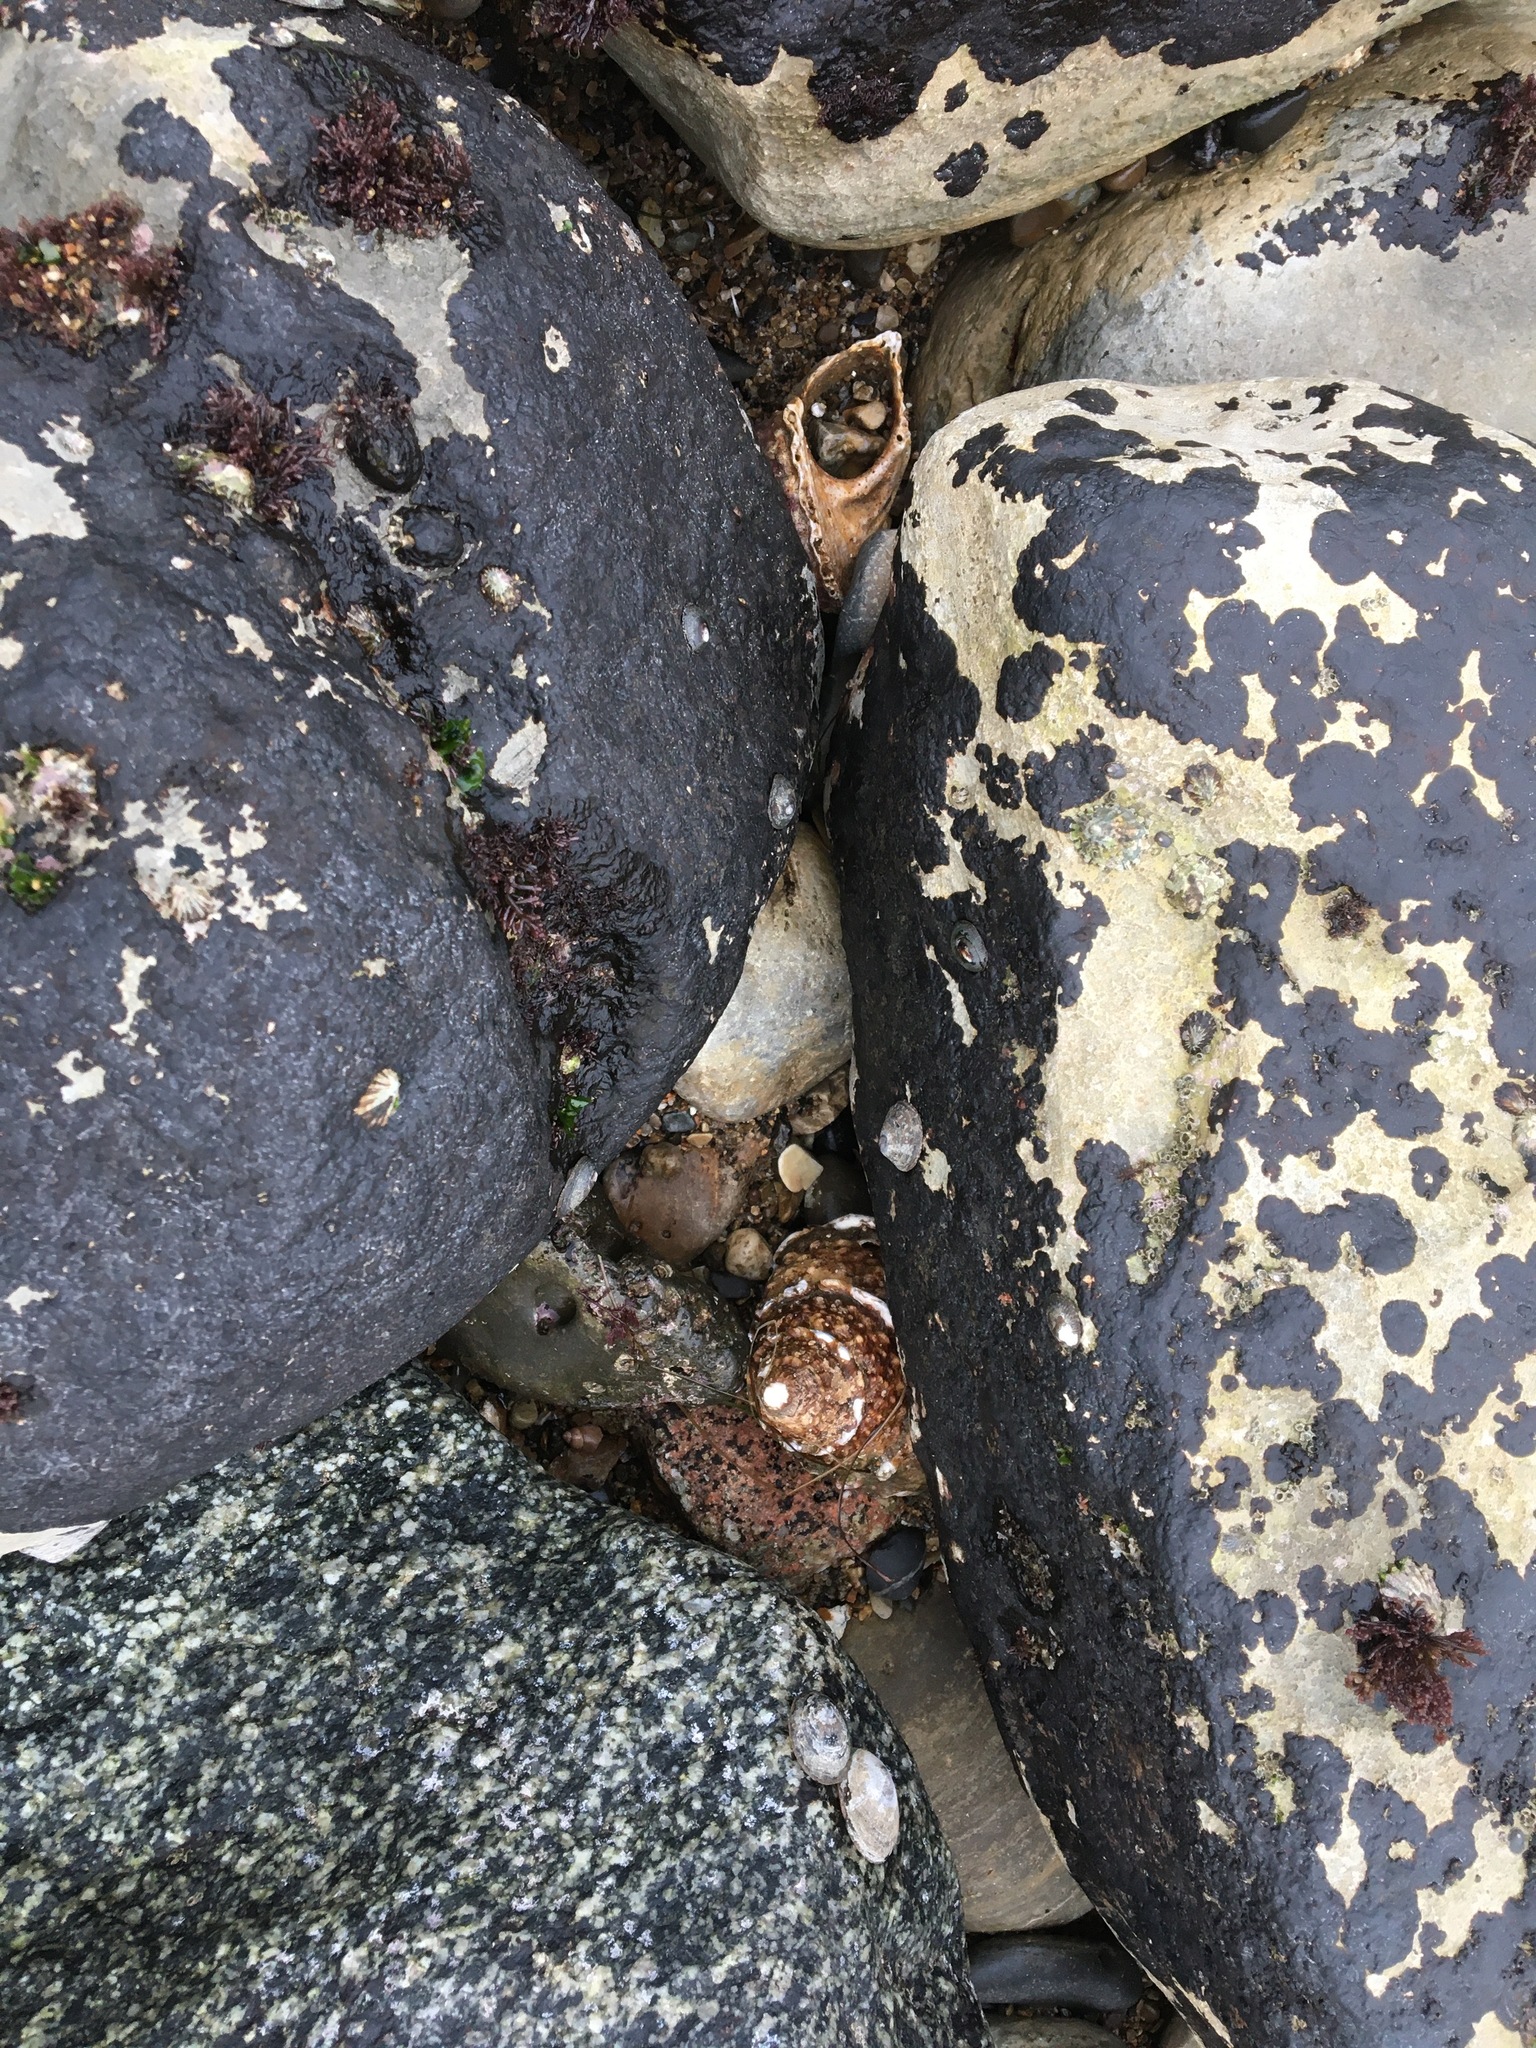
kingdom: Animalia
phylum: Mollusca
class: Gastropoda
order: Trochida
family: Turbinidae
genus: Megastraea
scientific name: Megastraea undosa
